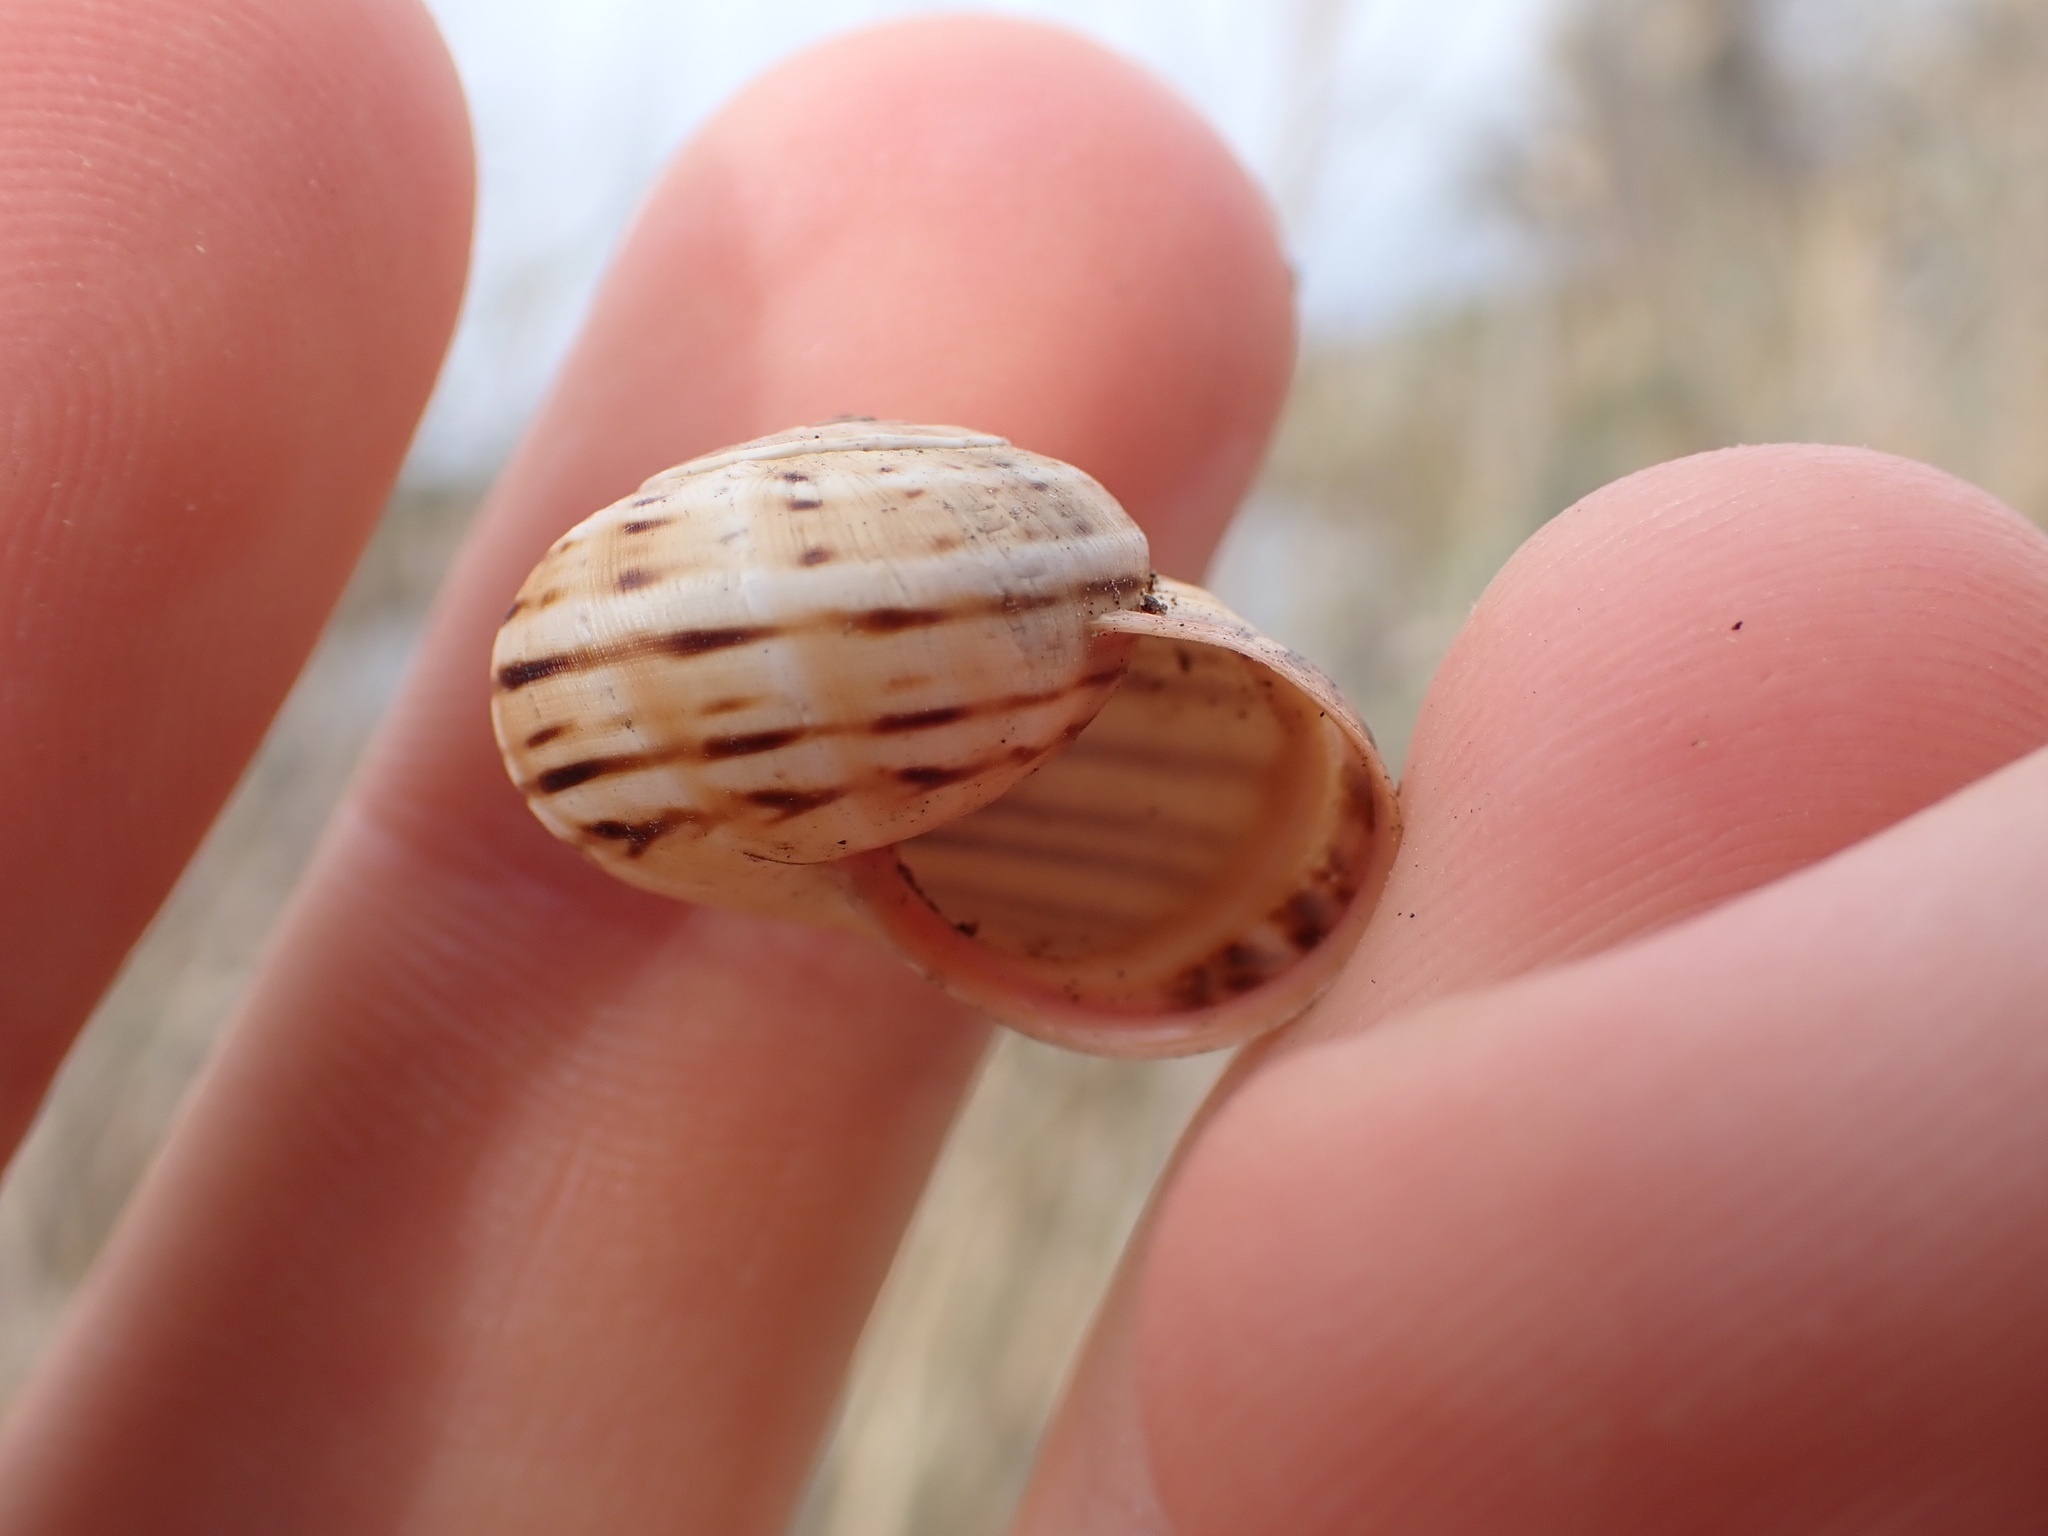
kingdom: Animalia
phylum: Mollusca
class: Gastropoda
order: Stylommatophora
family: Helicidae
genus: Theba
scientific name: Theba pisana
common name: White snail
